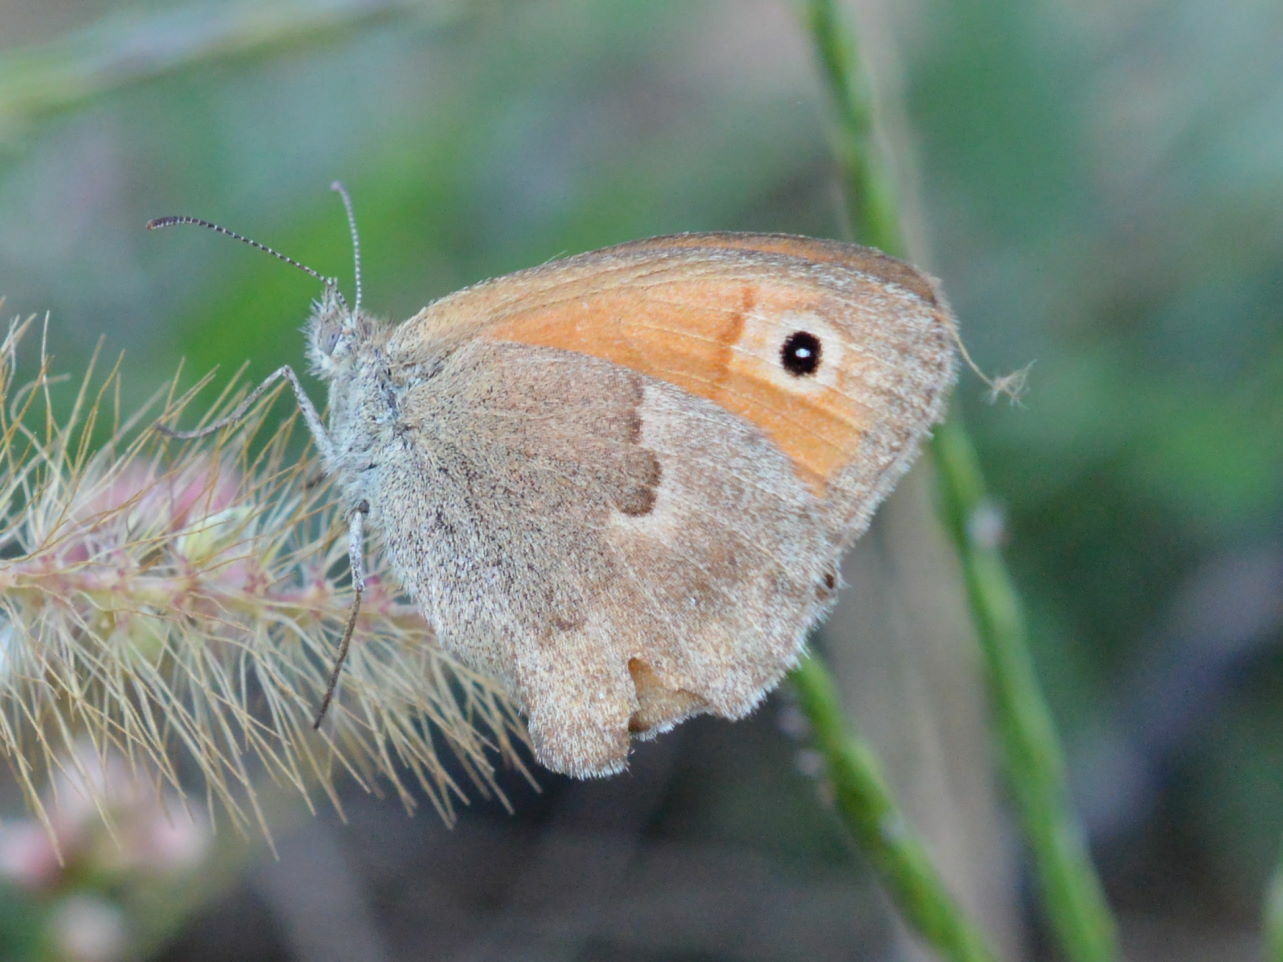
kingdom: Animalia
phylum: Arthropoda
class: Insecta
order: Lepidoptera
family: Nymphalidae
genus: Coenonympha
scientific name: Coenonympha pamphilus
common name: Small heath
